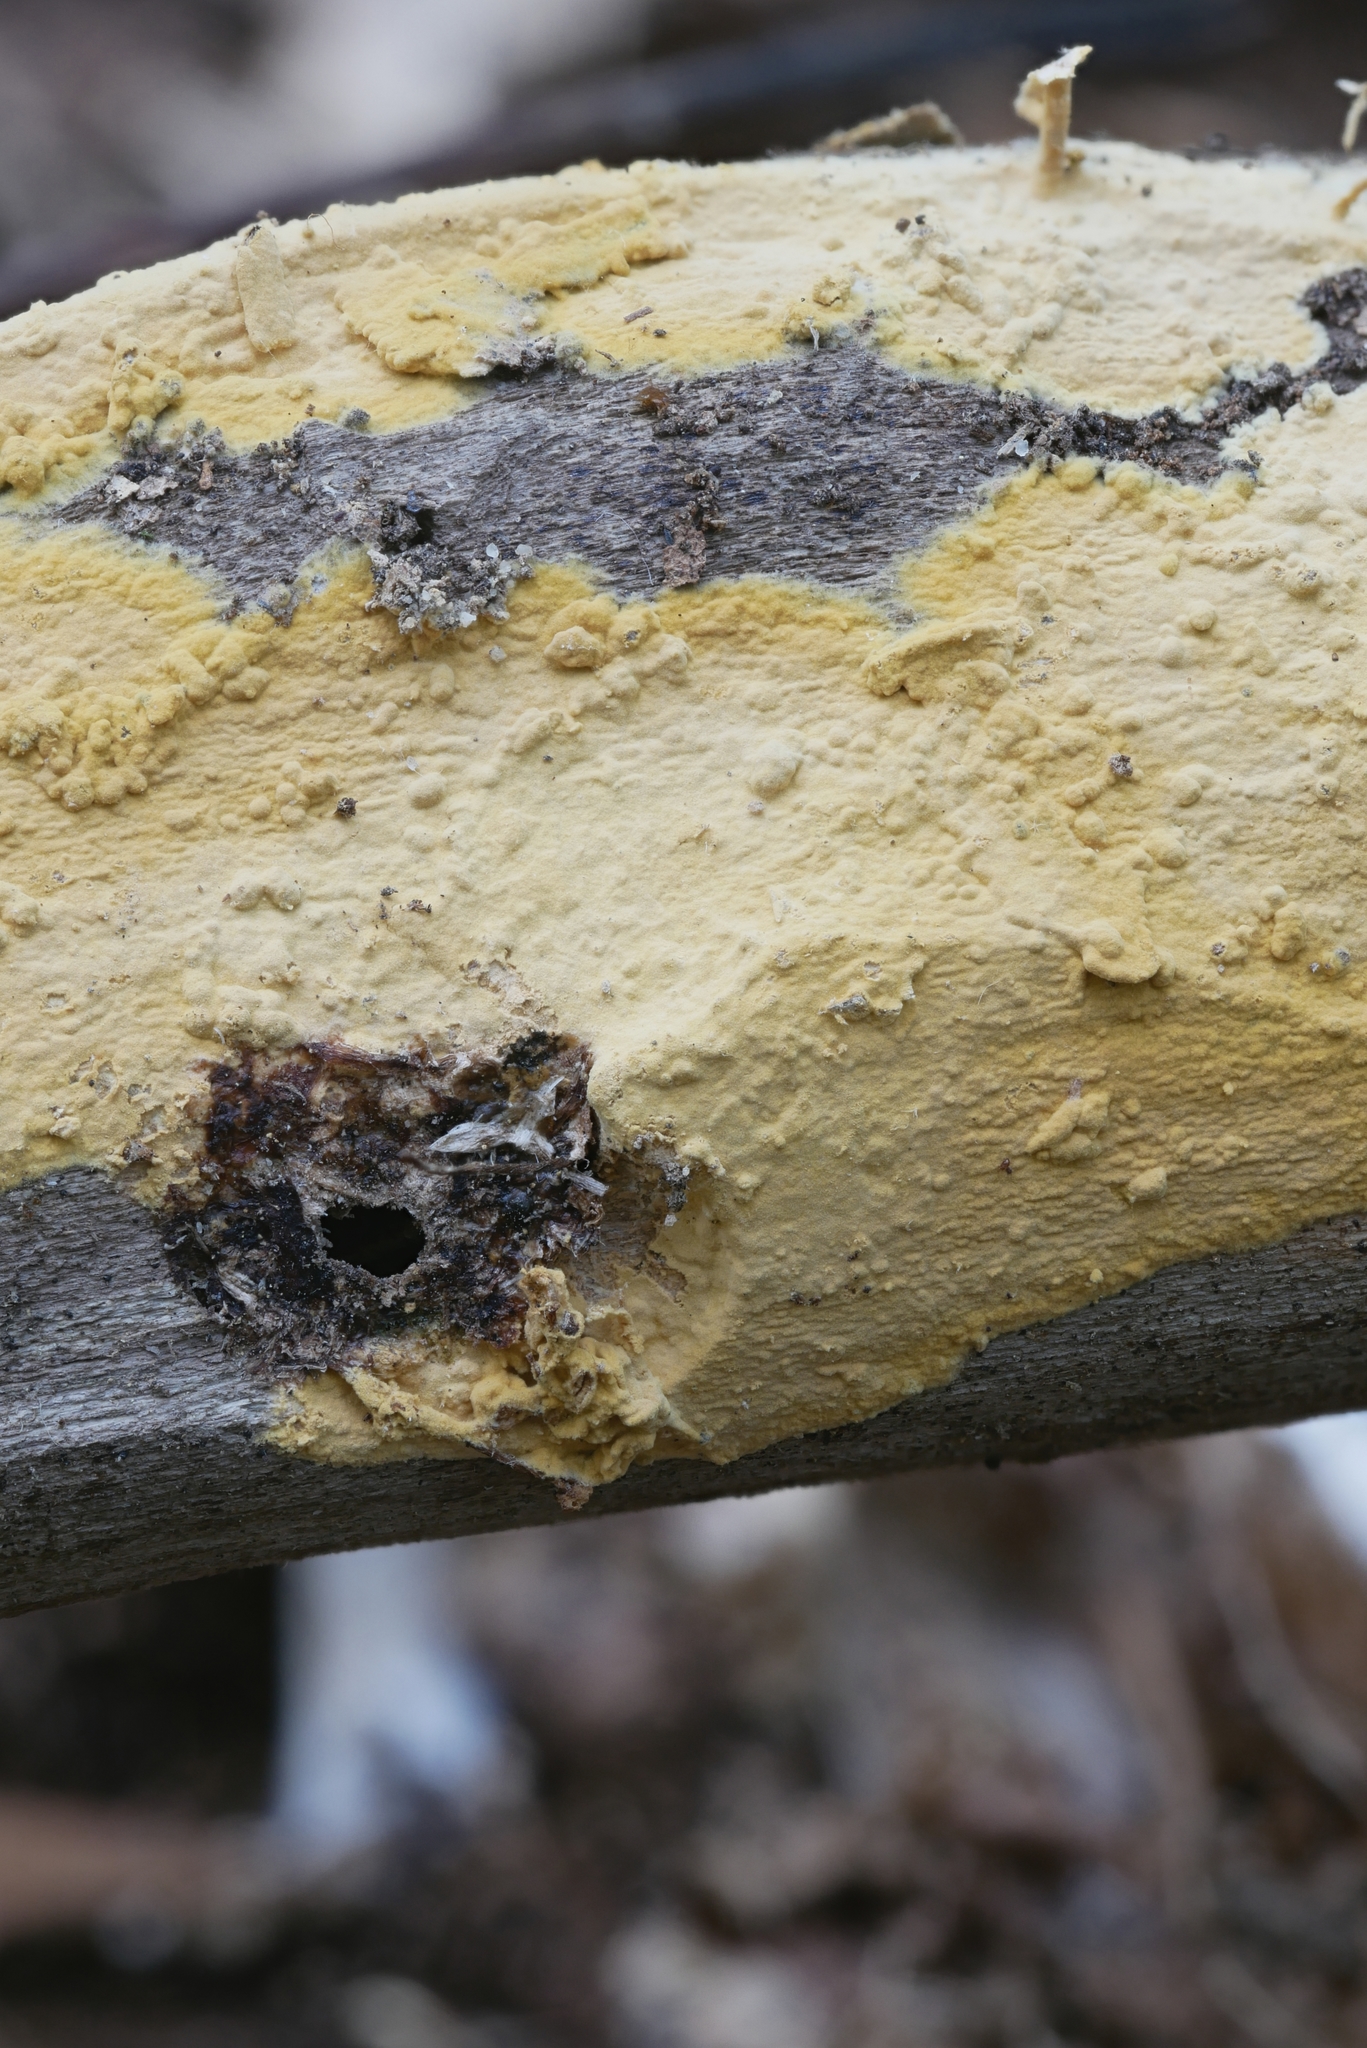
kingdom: Fungi
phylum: Basidiomycota
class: Agaricomycetes
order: Russulales
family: Peniophoraceae
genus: Vararia
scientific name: Vararia investiens
